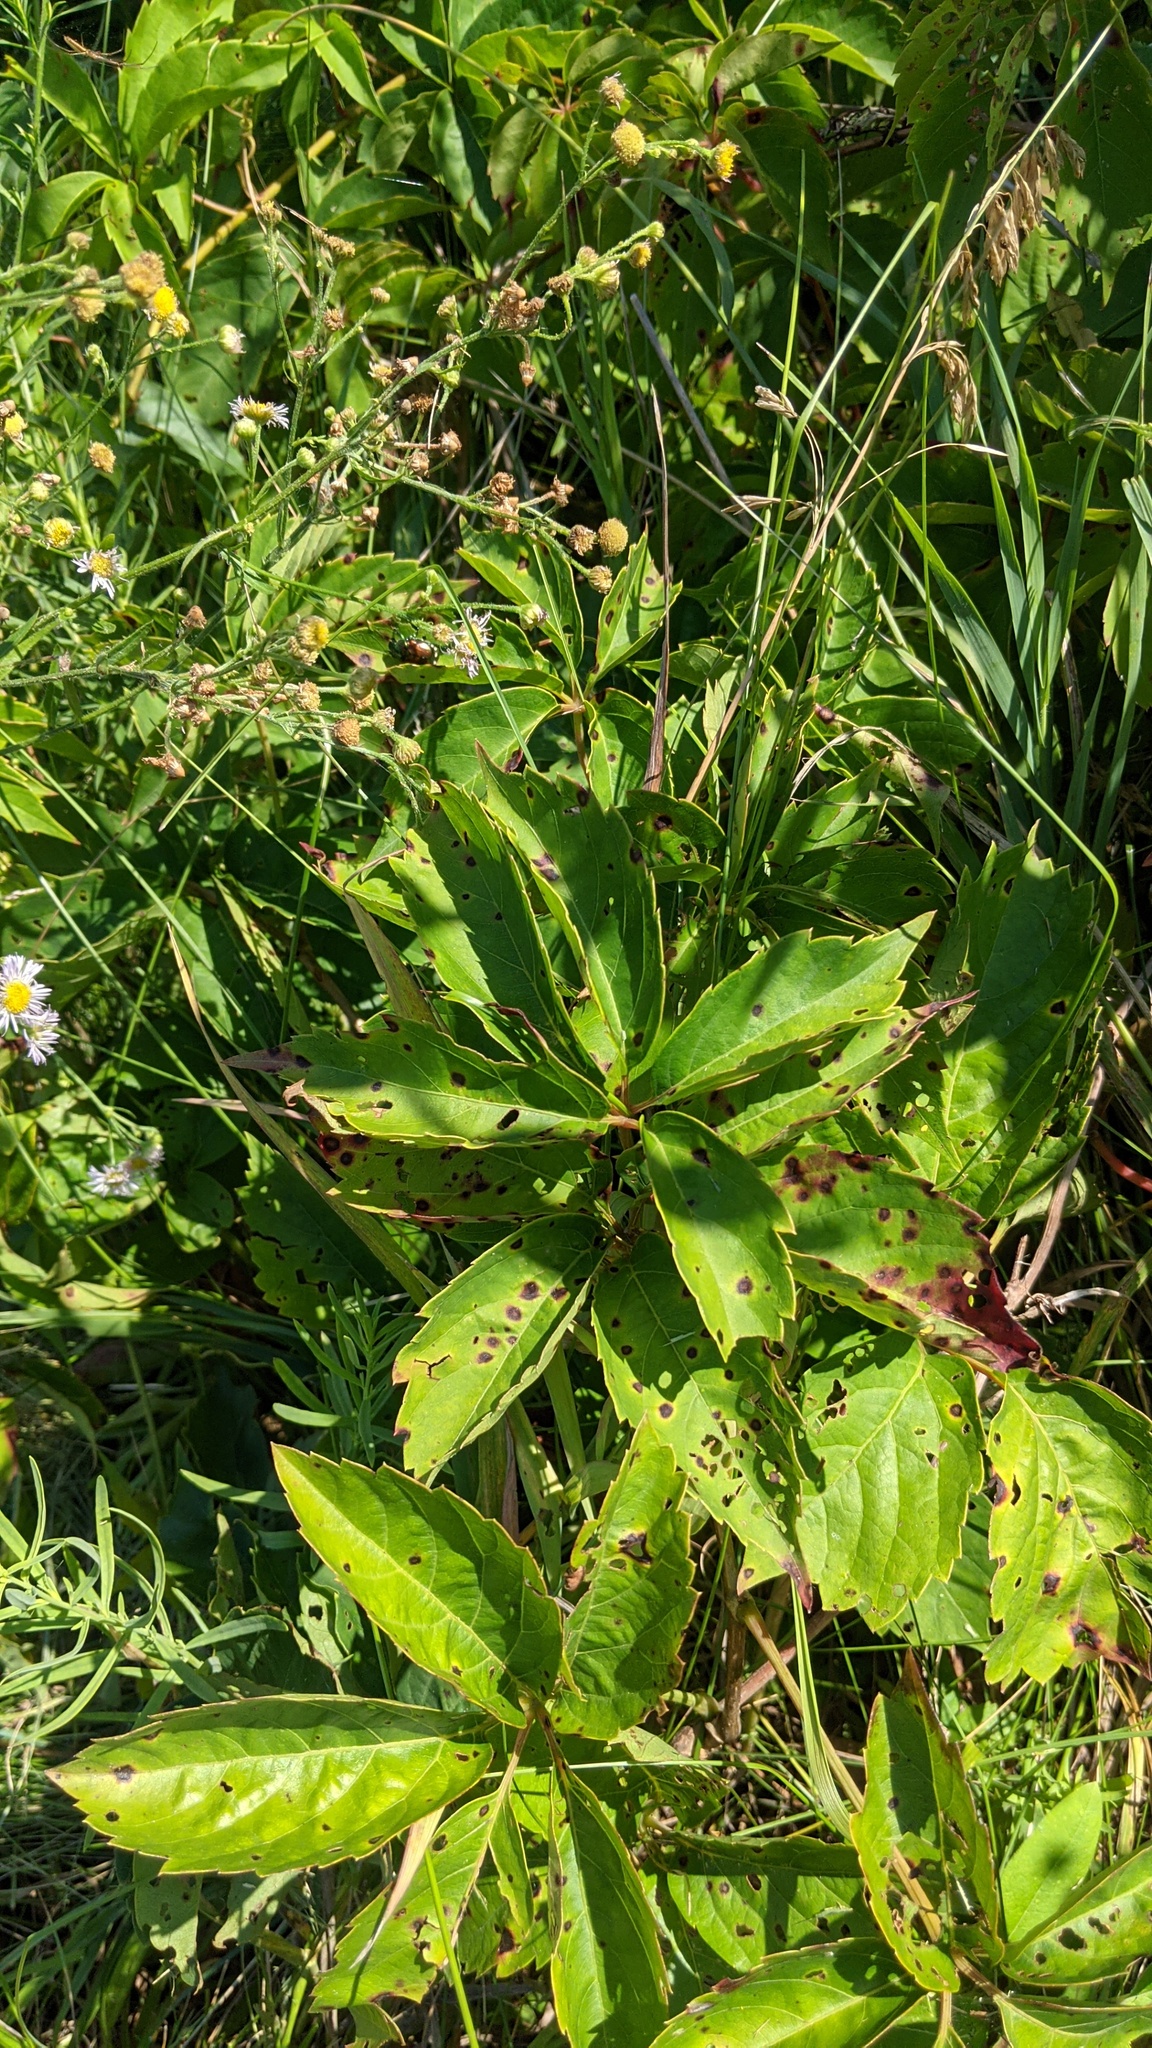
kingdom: Plantae
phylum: Tracheophyta
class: Magnoliopsida
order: Vitales
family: Vitaceae
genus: Parthenocissus
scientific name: Parthenocissus inserta
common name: False virginia-creeper
